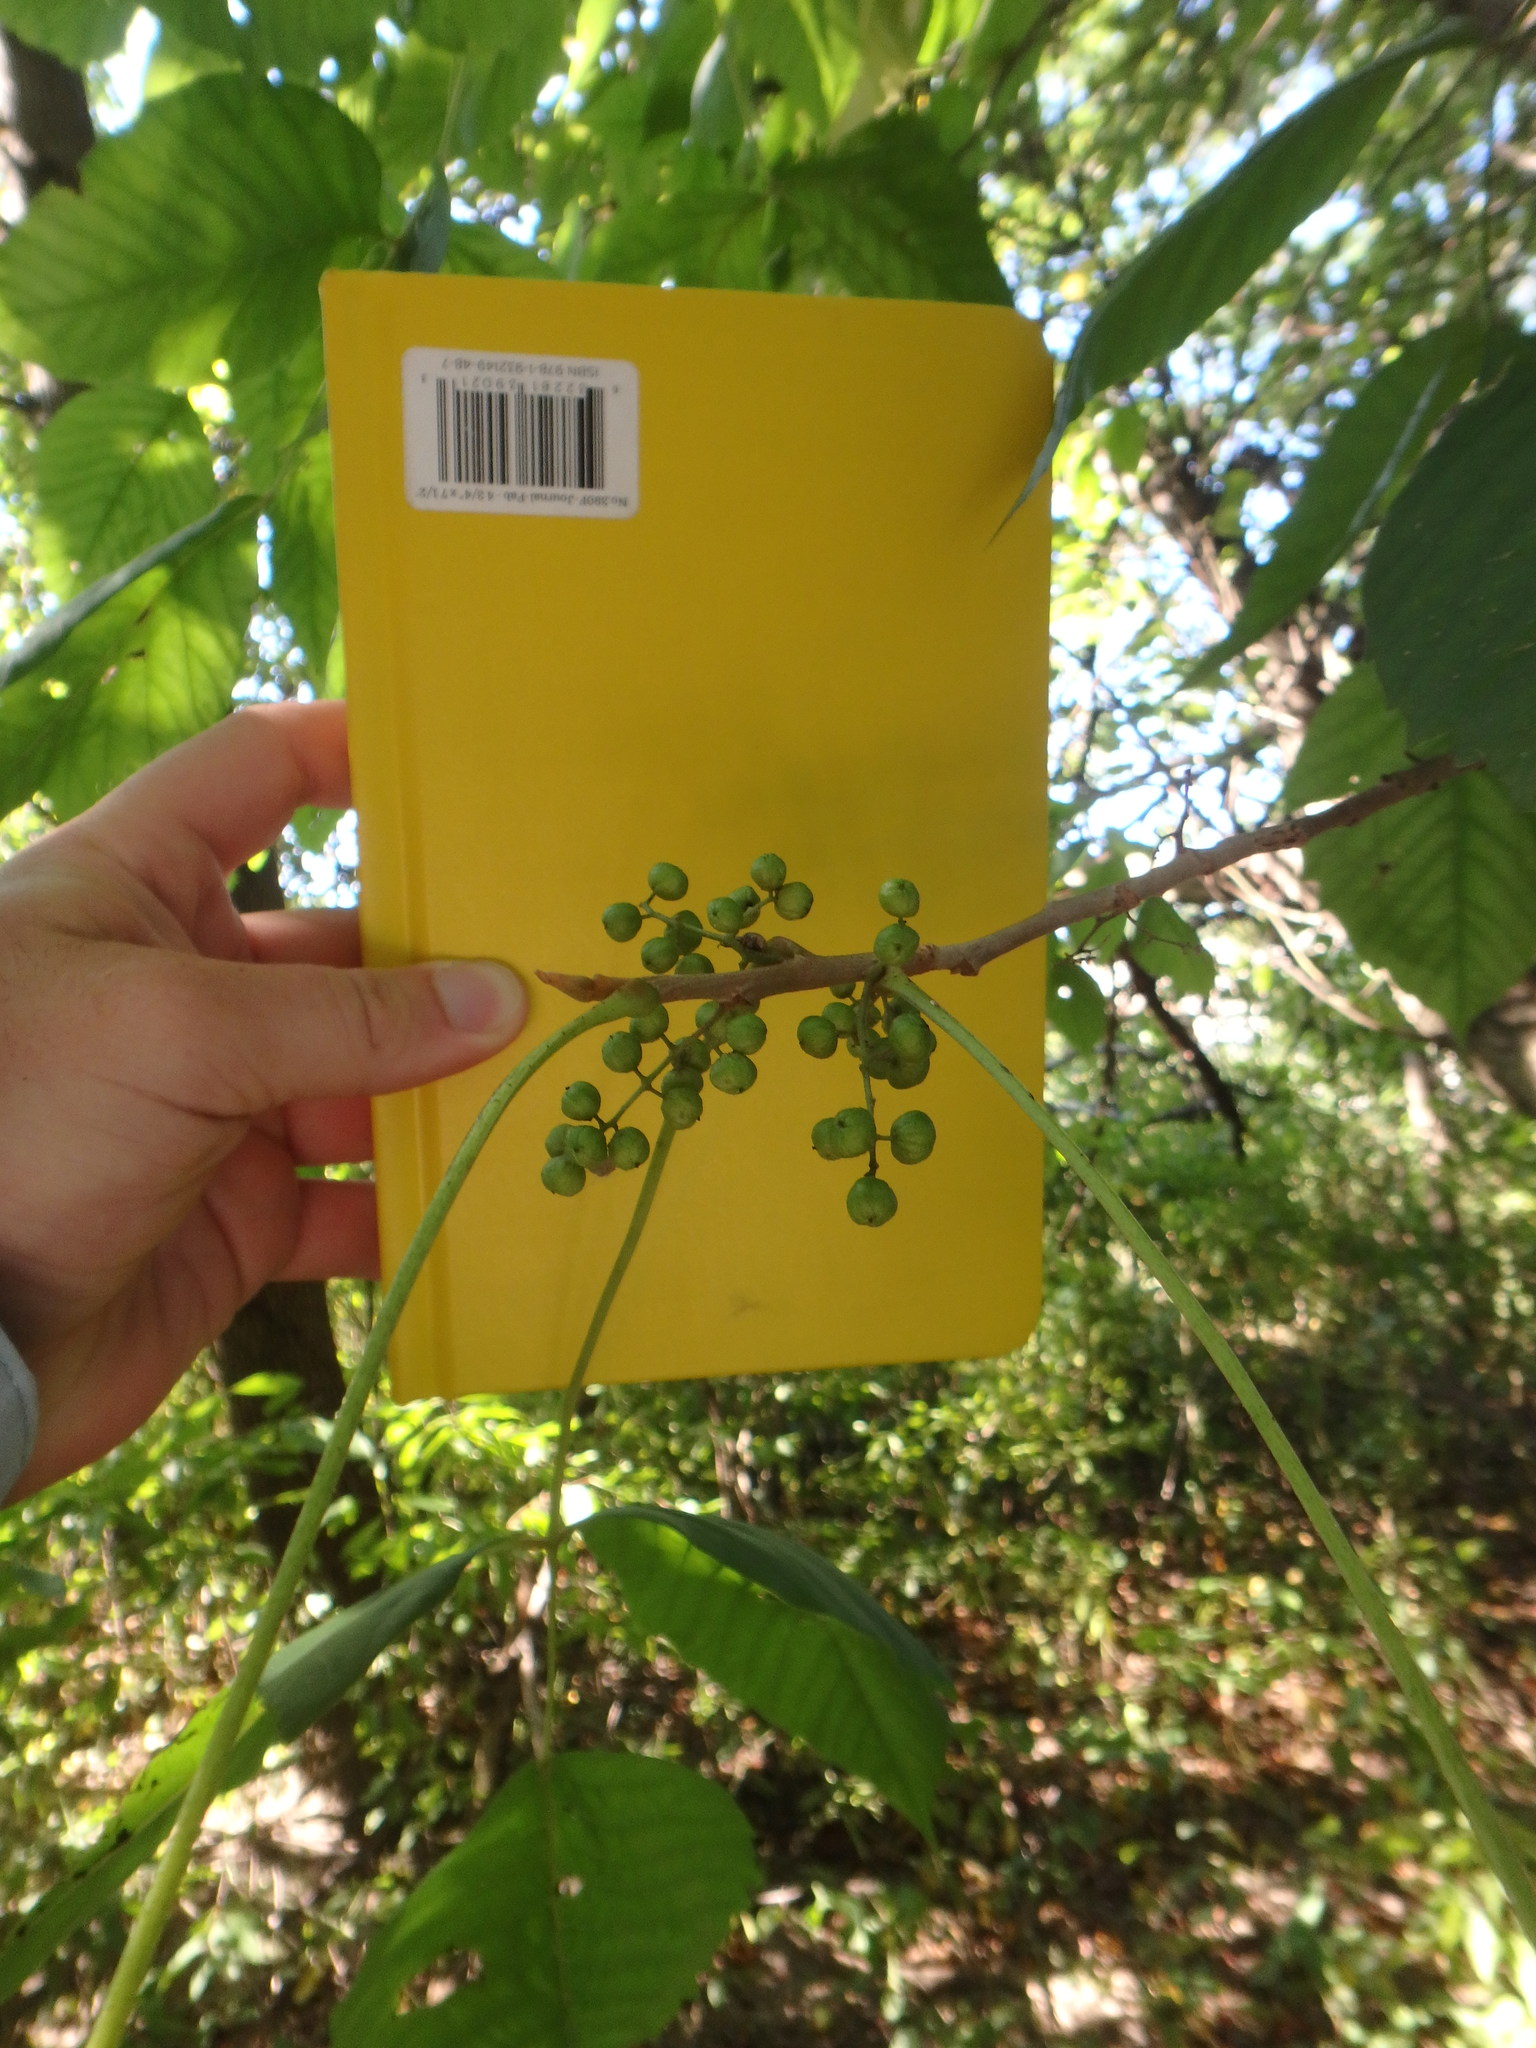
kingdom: Plantae
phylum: Tracheophyta
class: Magnoliopsida
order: Sapindales
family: Anacardiaceae
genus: Toxicodendron
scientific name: Toxicodendron radicans
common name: Poison ivy
